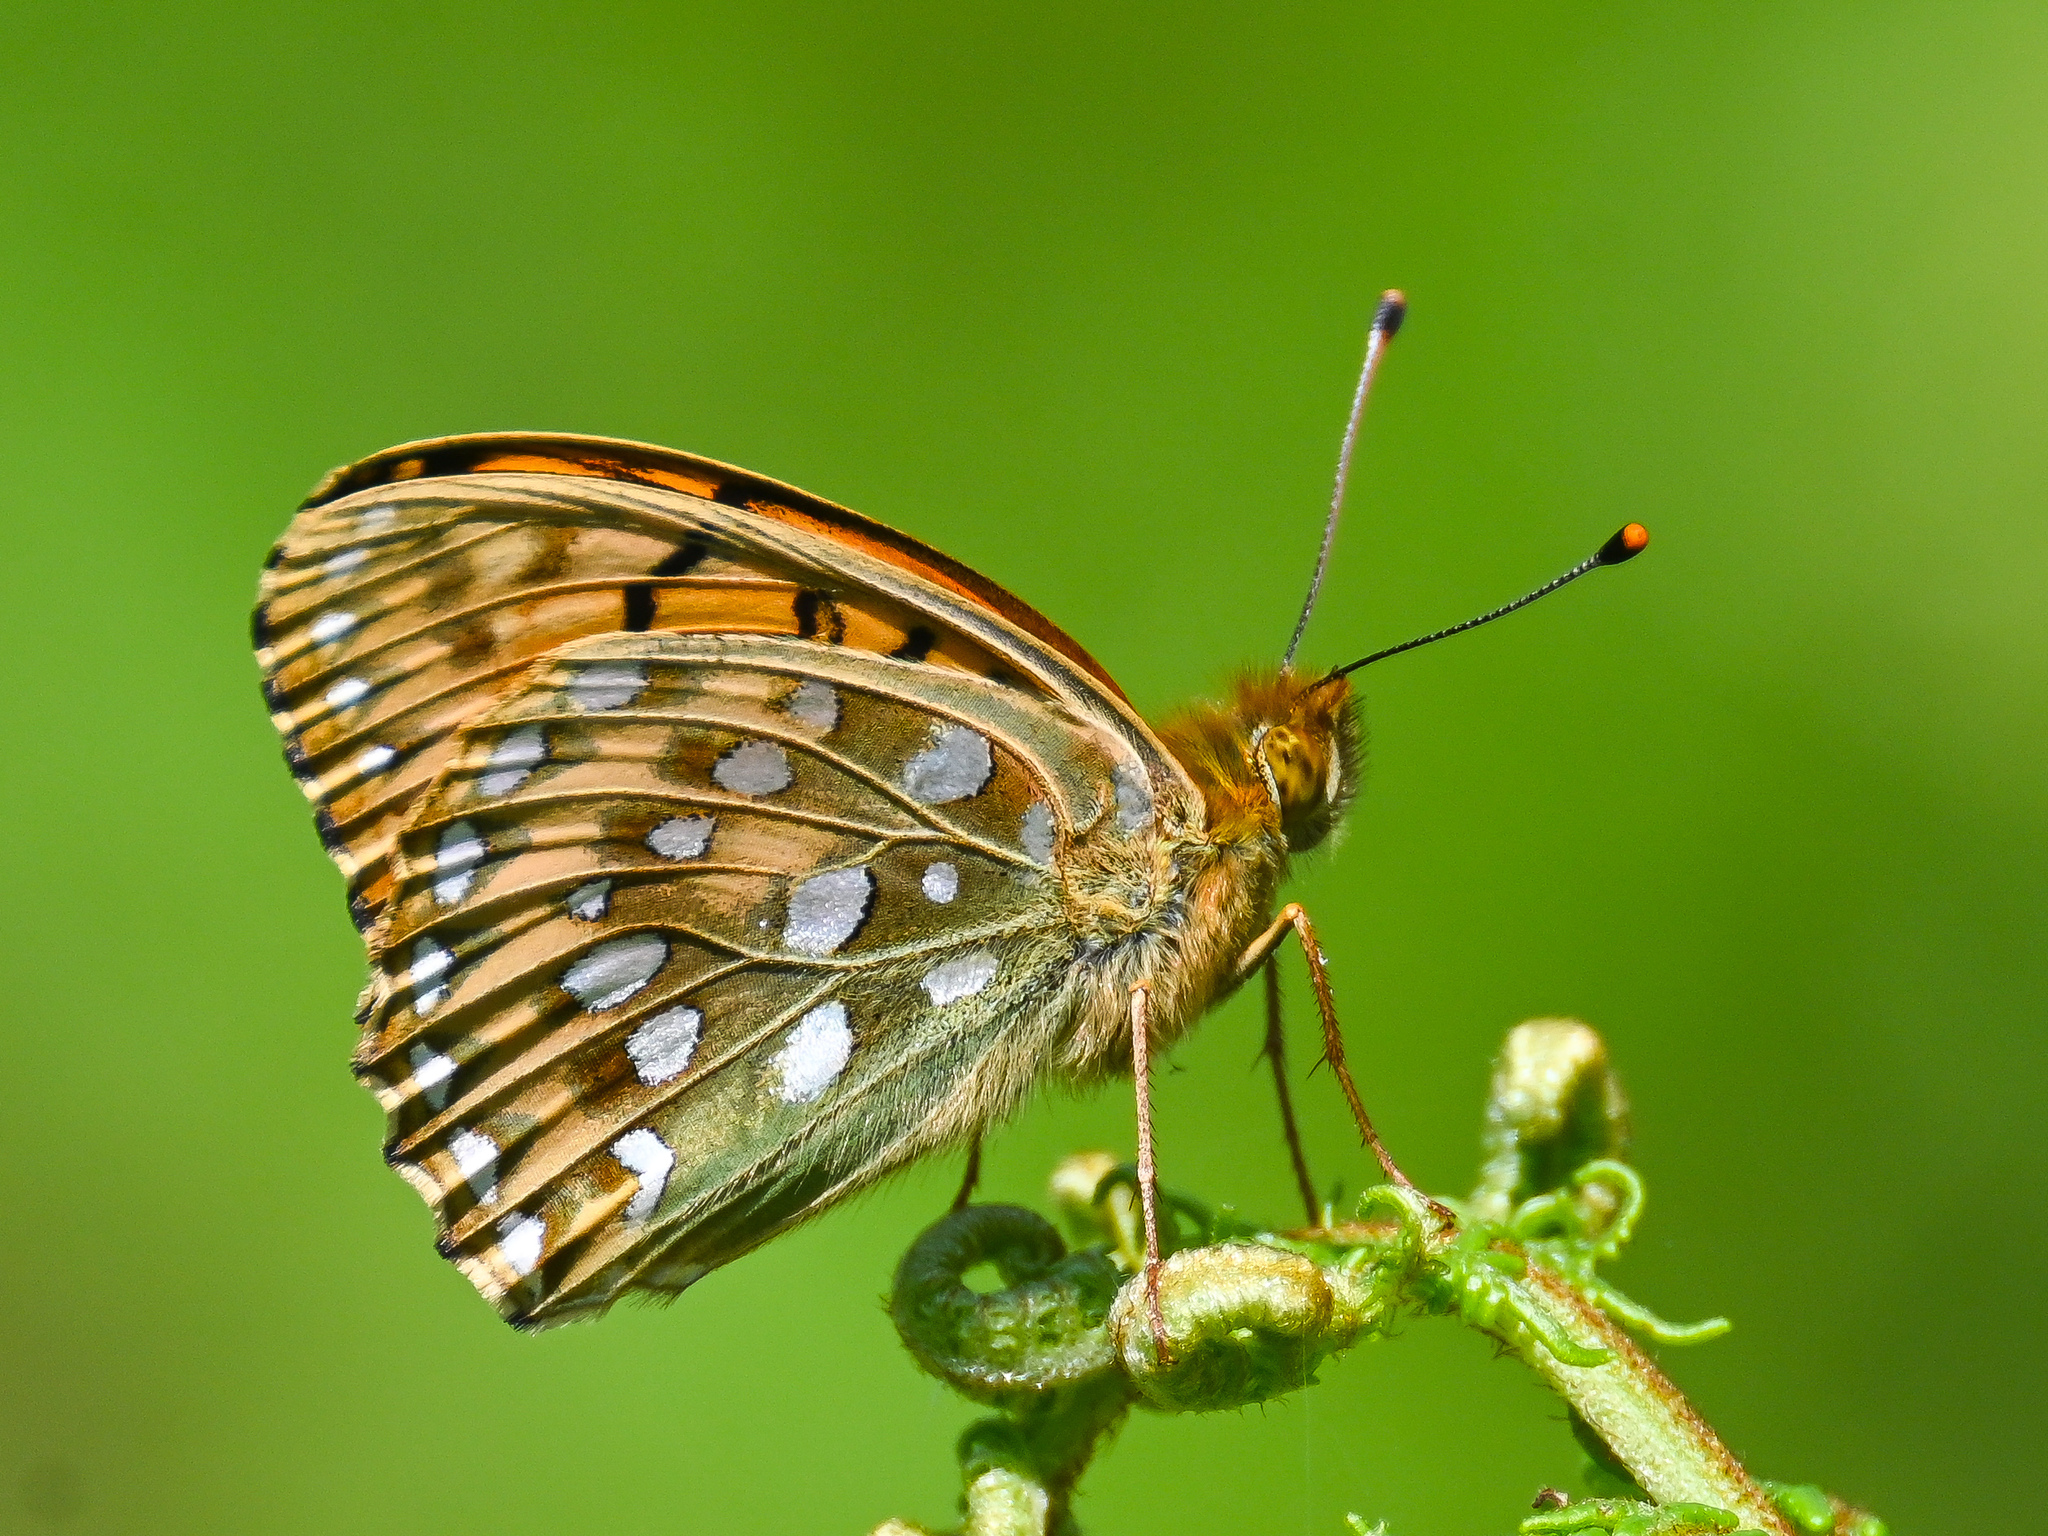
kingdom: Animalia
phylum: Arthropoda
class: Insecta
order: Lepidoptera
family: Nymphalidae
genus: Speyeria
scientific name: Speyeria aglaja
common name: Dark green fritillary
